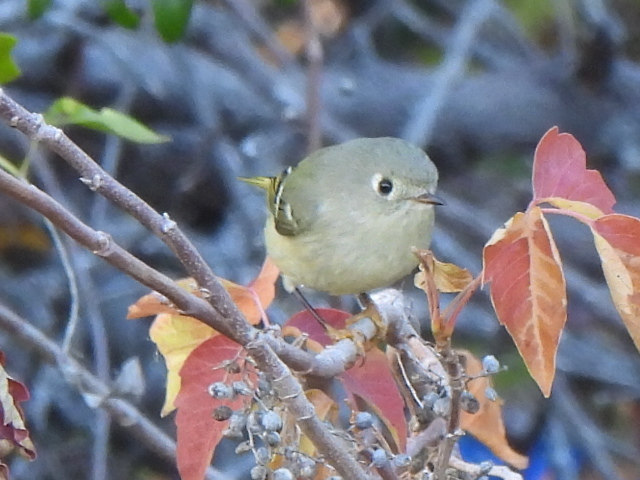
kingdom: Animalia
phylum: Chordata
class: Aves
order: Passeriformes
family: Regulidae
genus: Regulus
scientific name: Regulus calendula
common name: Ruby-crowned kinglet
